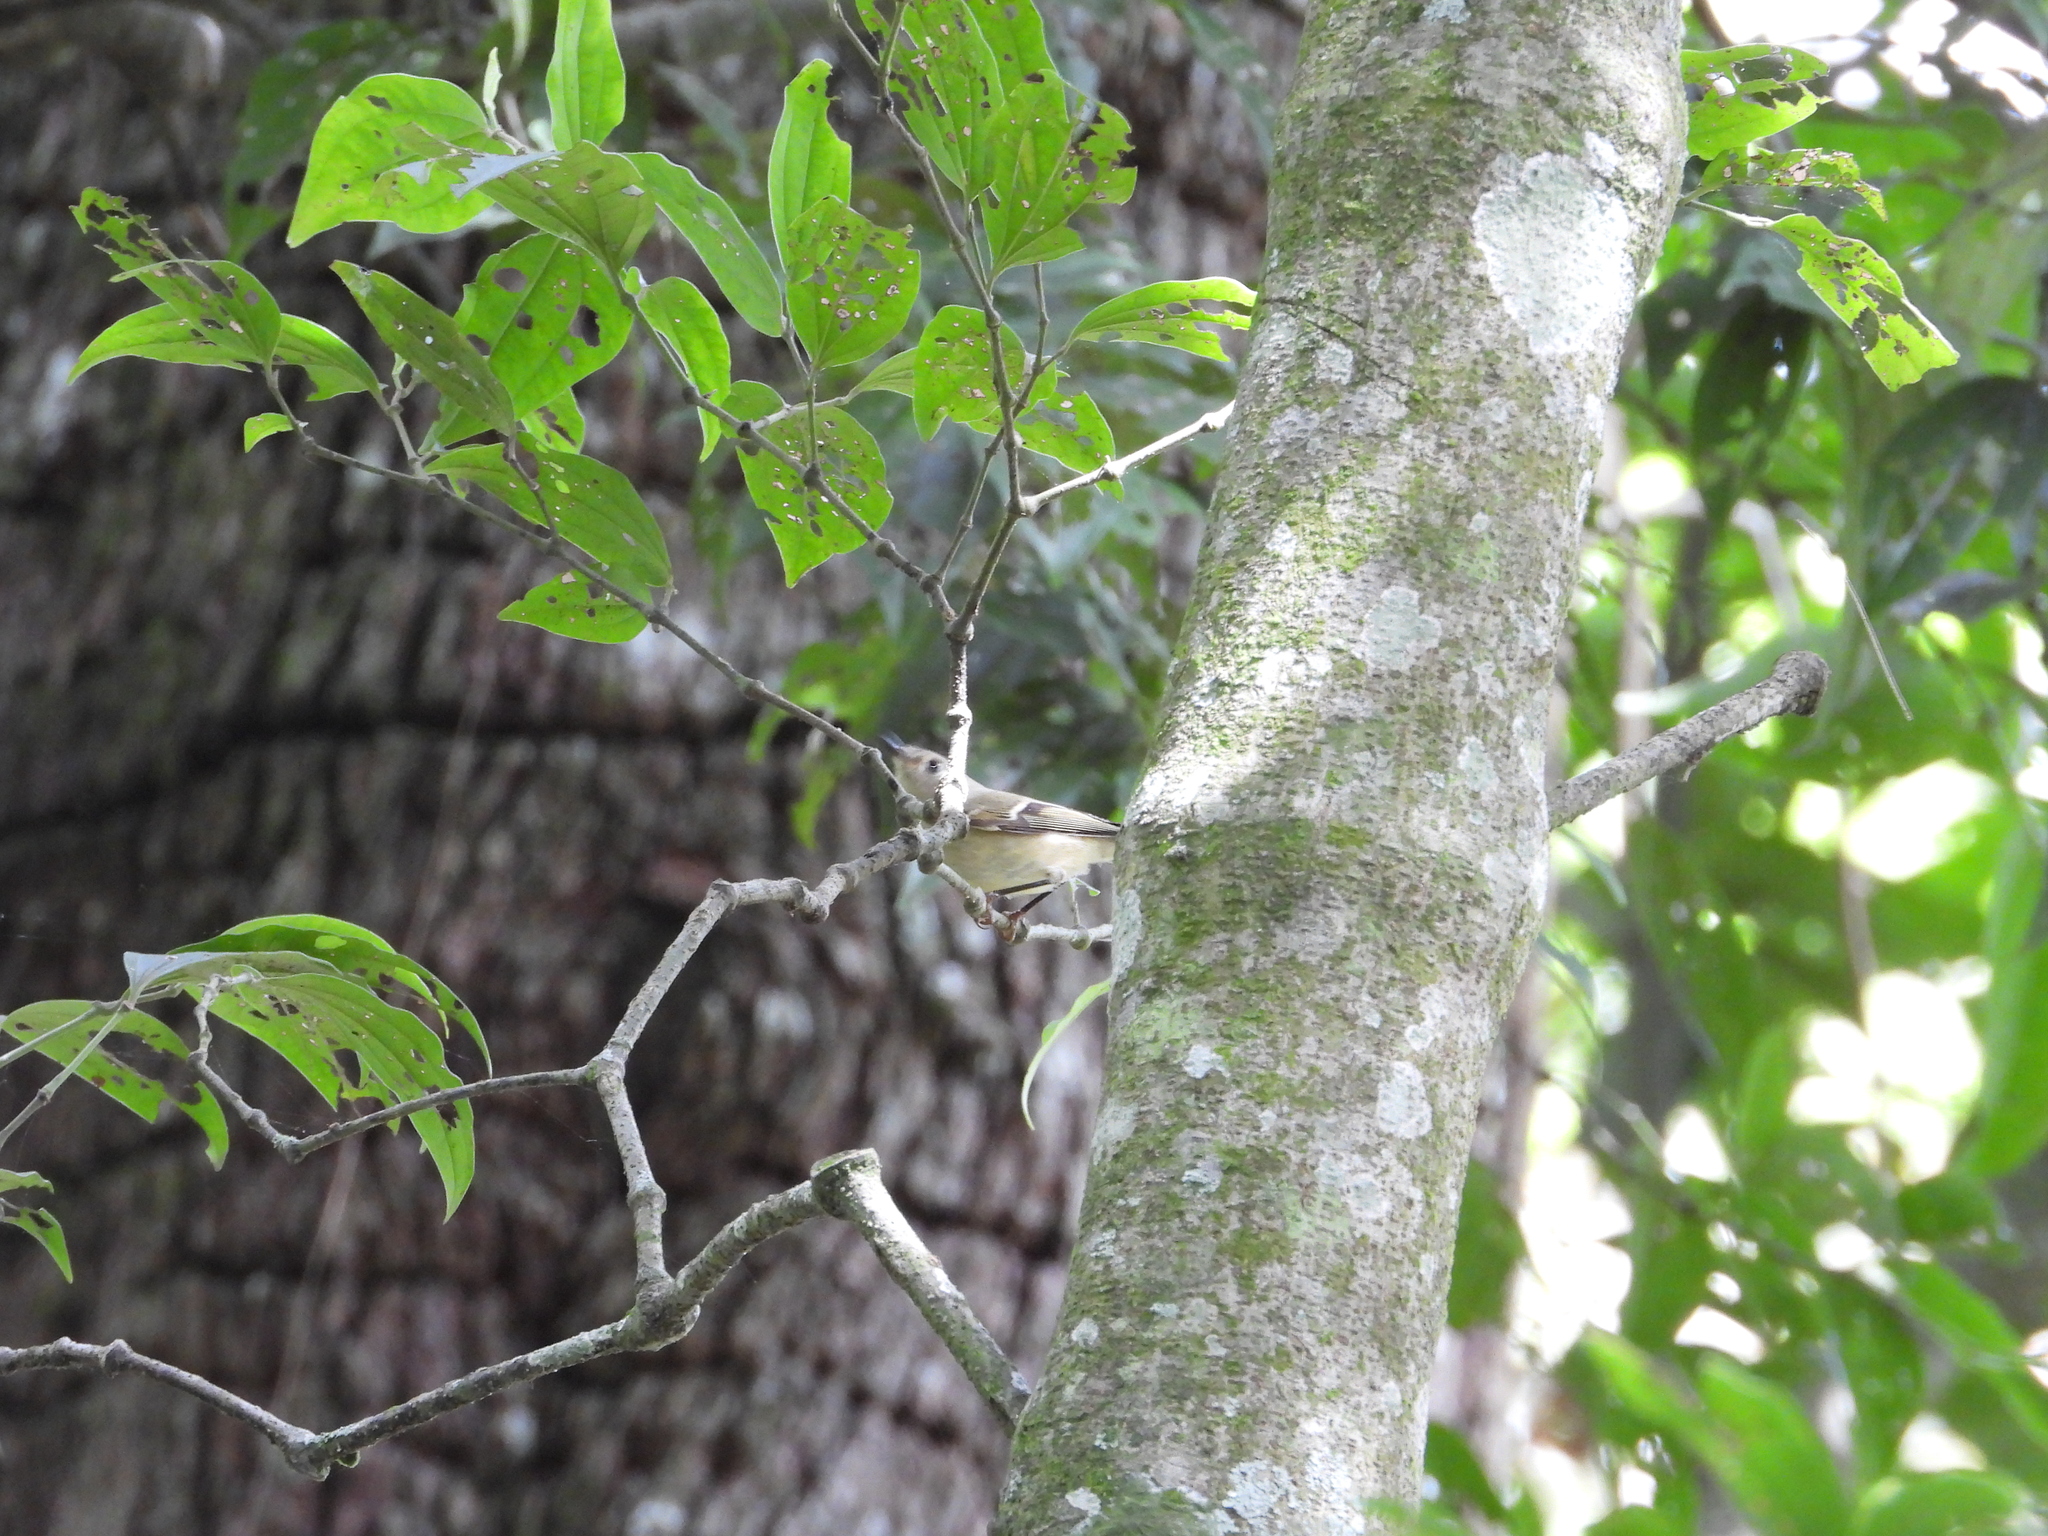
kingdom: Animalia
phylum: Chordata
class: Aves
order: Passeriformes
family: Regulidae
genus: Regulus
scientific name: Regulus calendula
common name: Ruby-crowned kinglet
